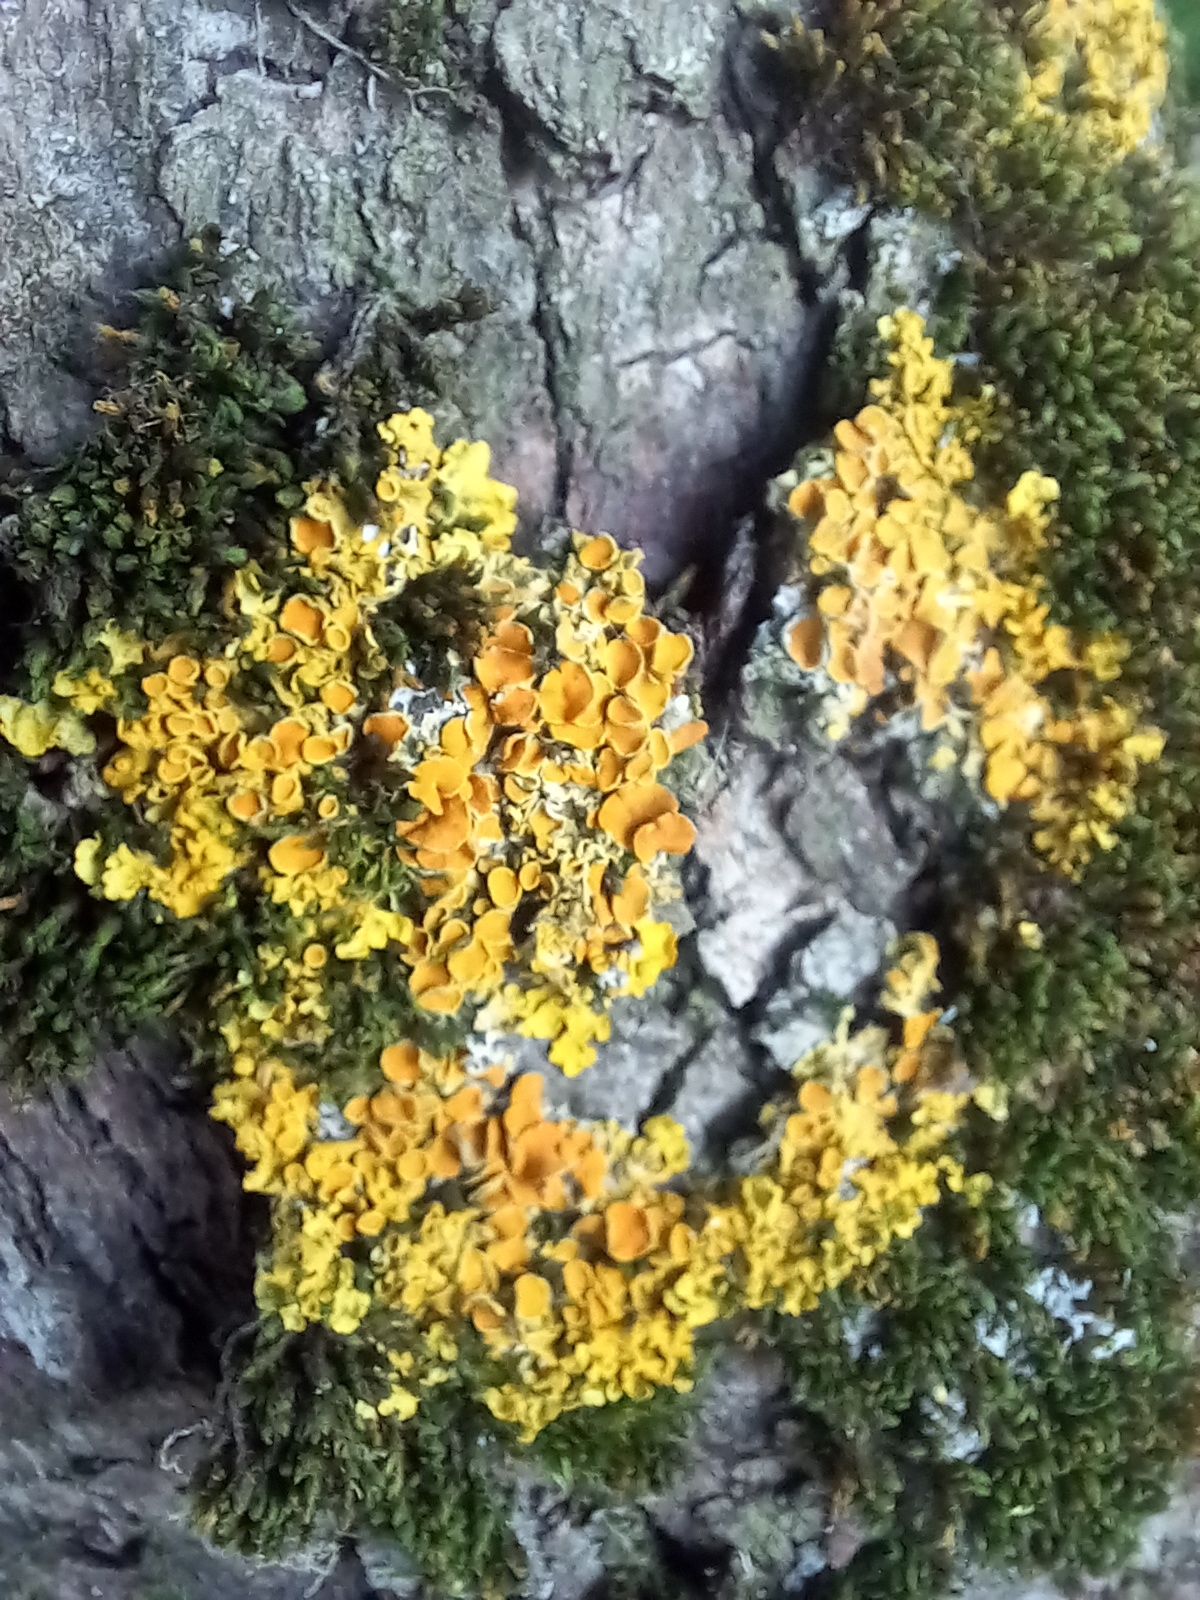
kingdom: Fungi
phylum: Ascomycota
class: Lecanoromycetes
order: Teloschistales
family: Teloschistaceae
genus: Xanthoria
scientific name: Xanthoria parietina
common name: Common orange lichen
